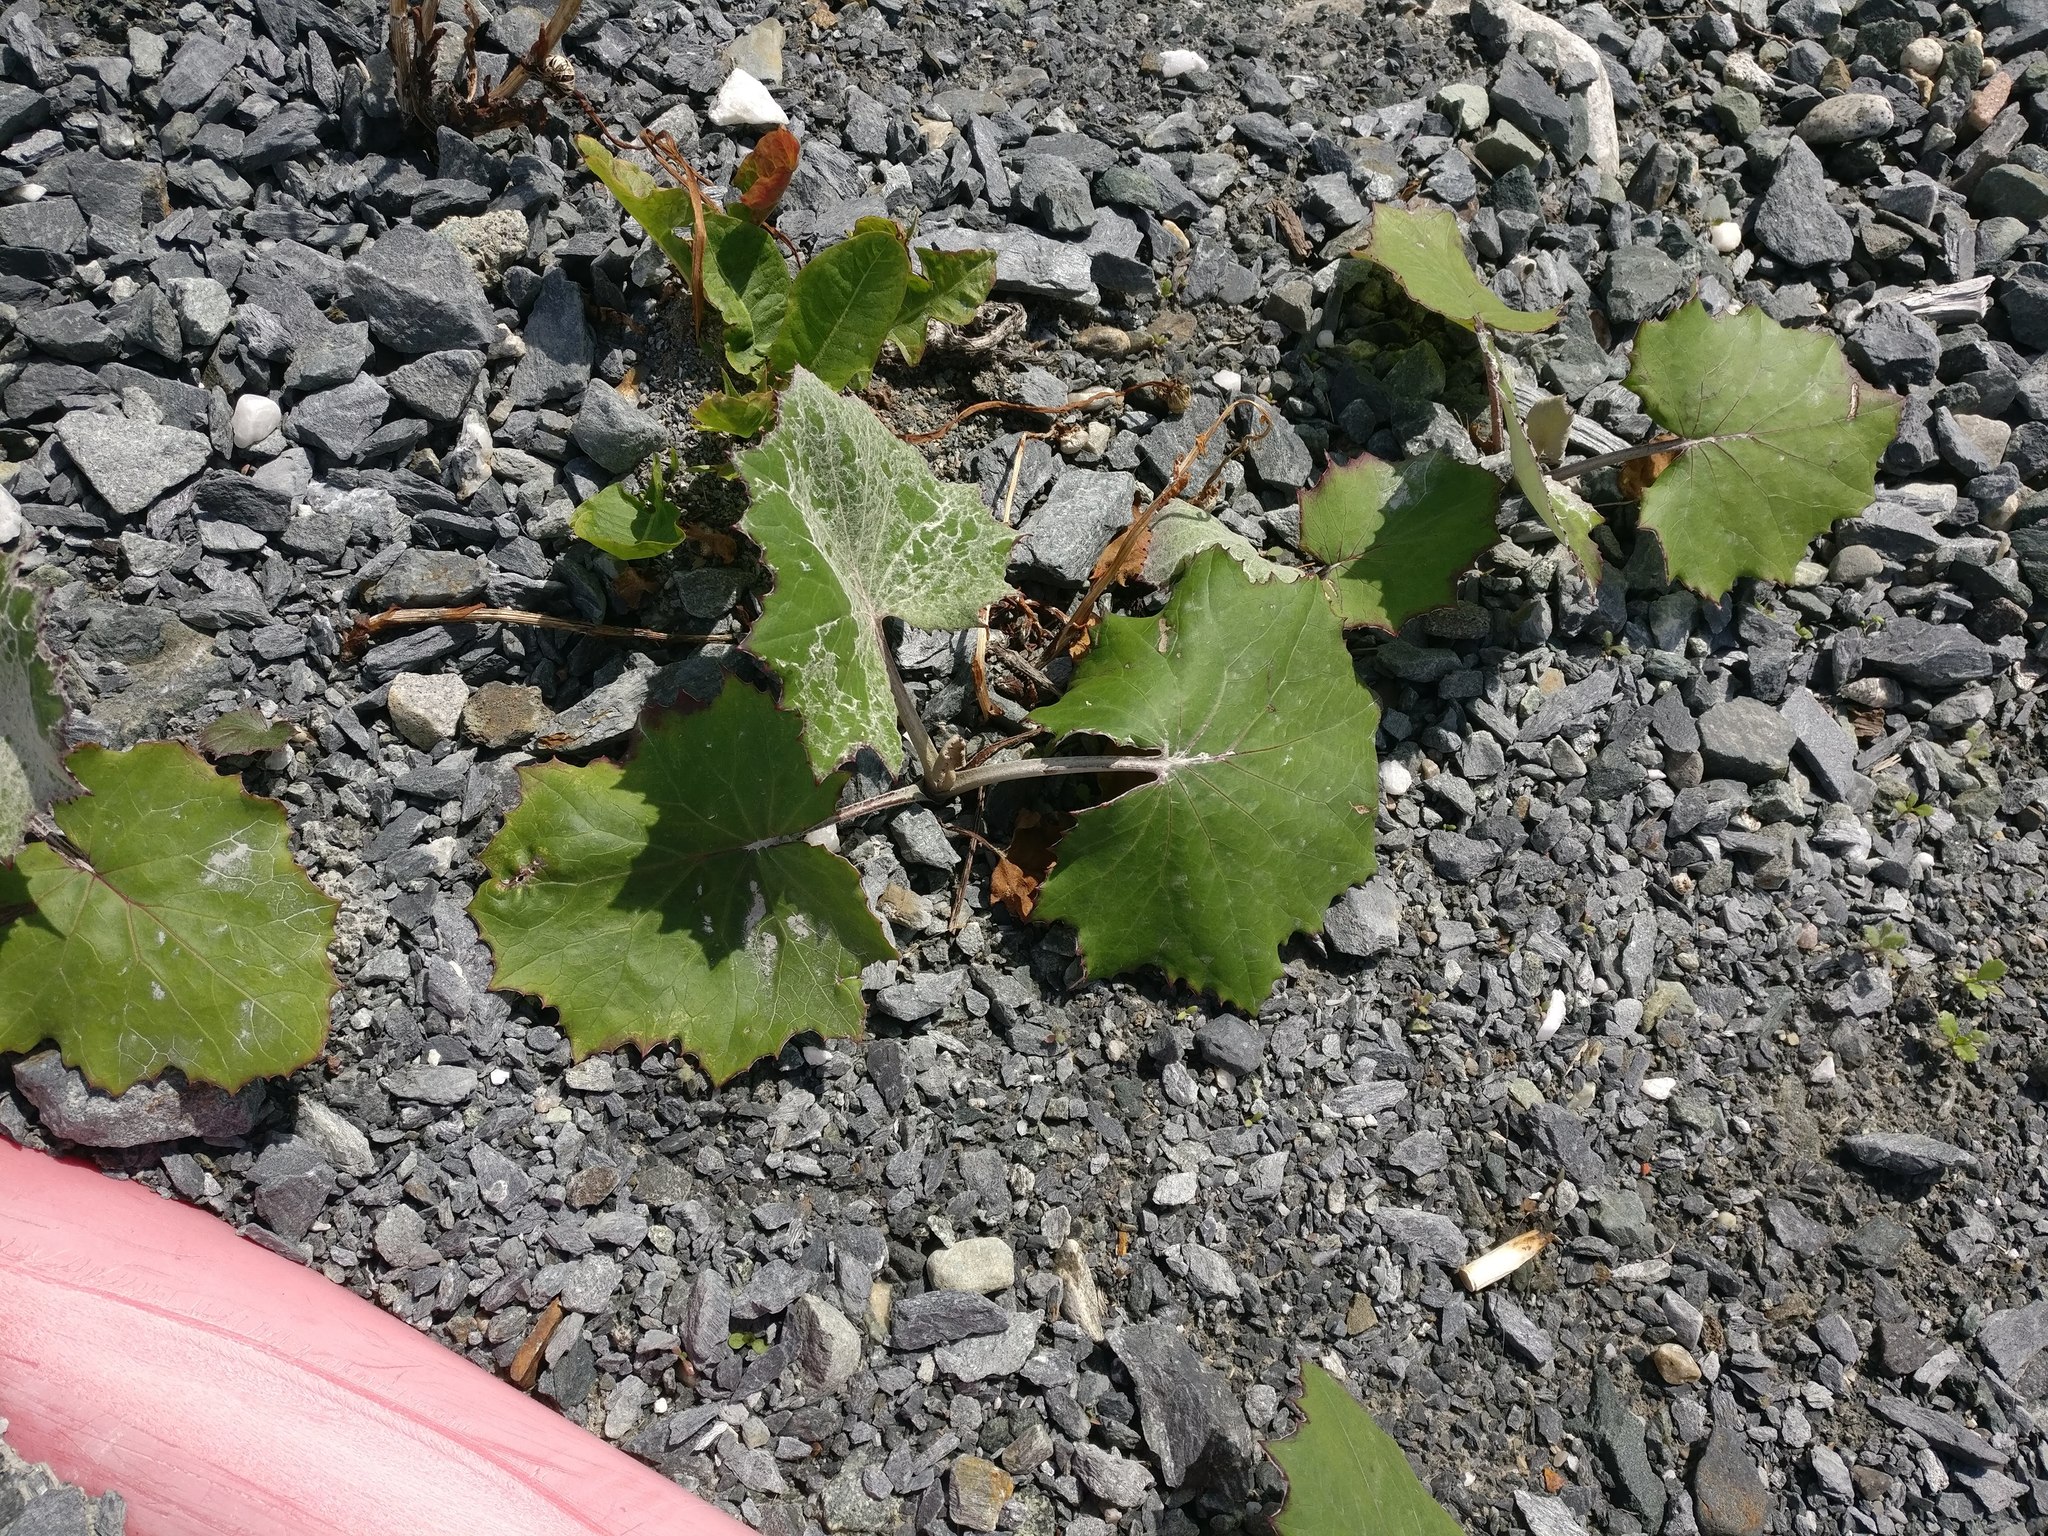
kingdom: Plantae
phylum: Tracheophyta
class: Magnoliopsida
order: Asterales
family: Asteraceae
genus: Tussilago
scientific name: Tussilago farfara
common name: Coltsfoot
